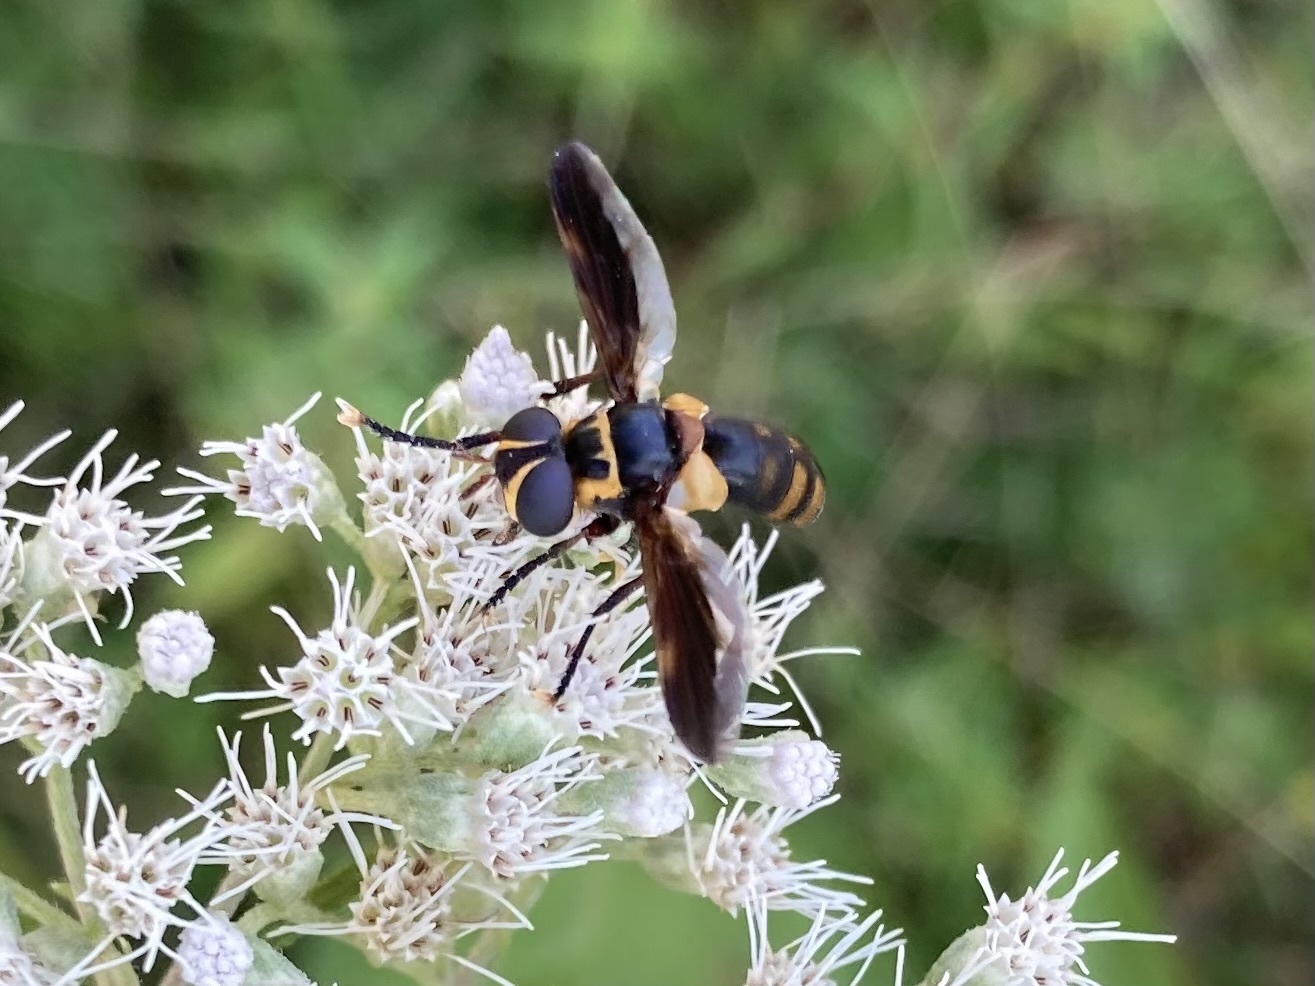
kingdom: Animalia
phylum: Arthropoda
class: Insecta
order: Diptera
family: Tachinidae
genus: Trichopoda
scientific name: Trichopoda plumipes
